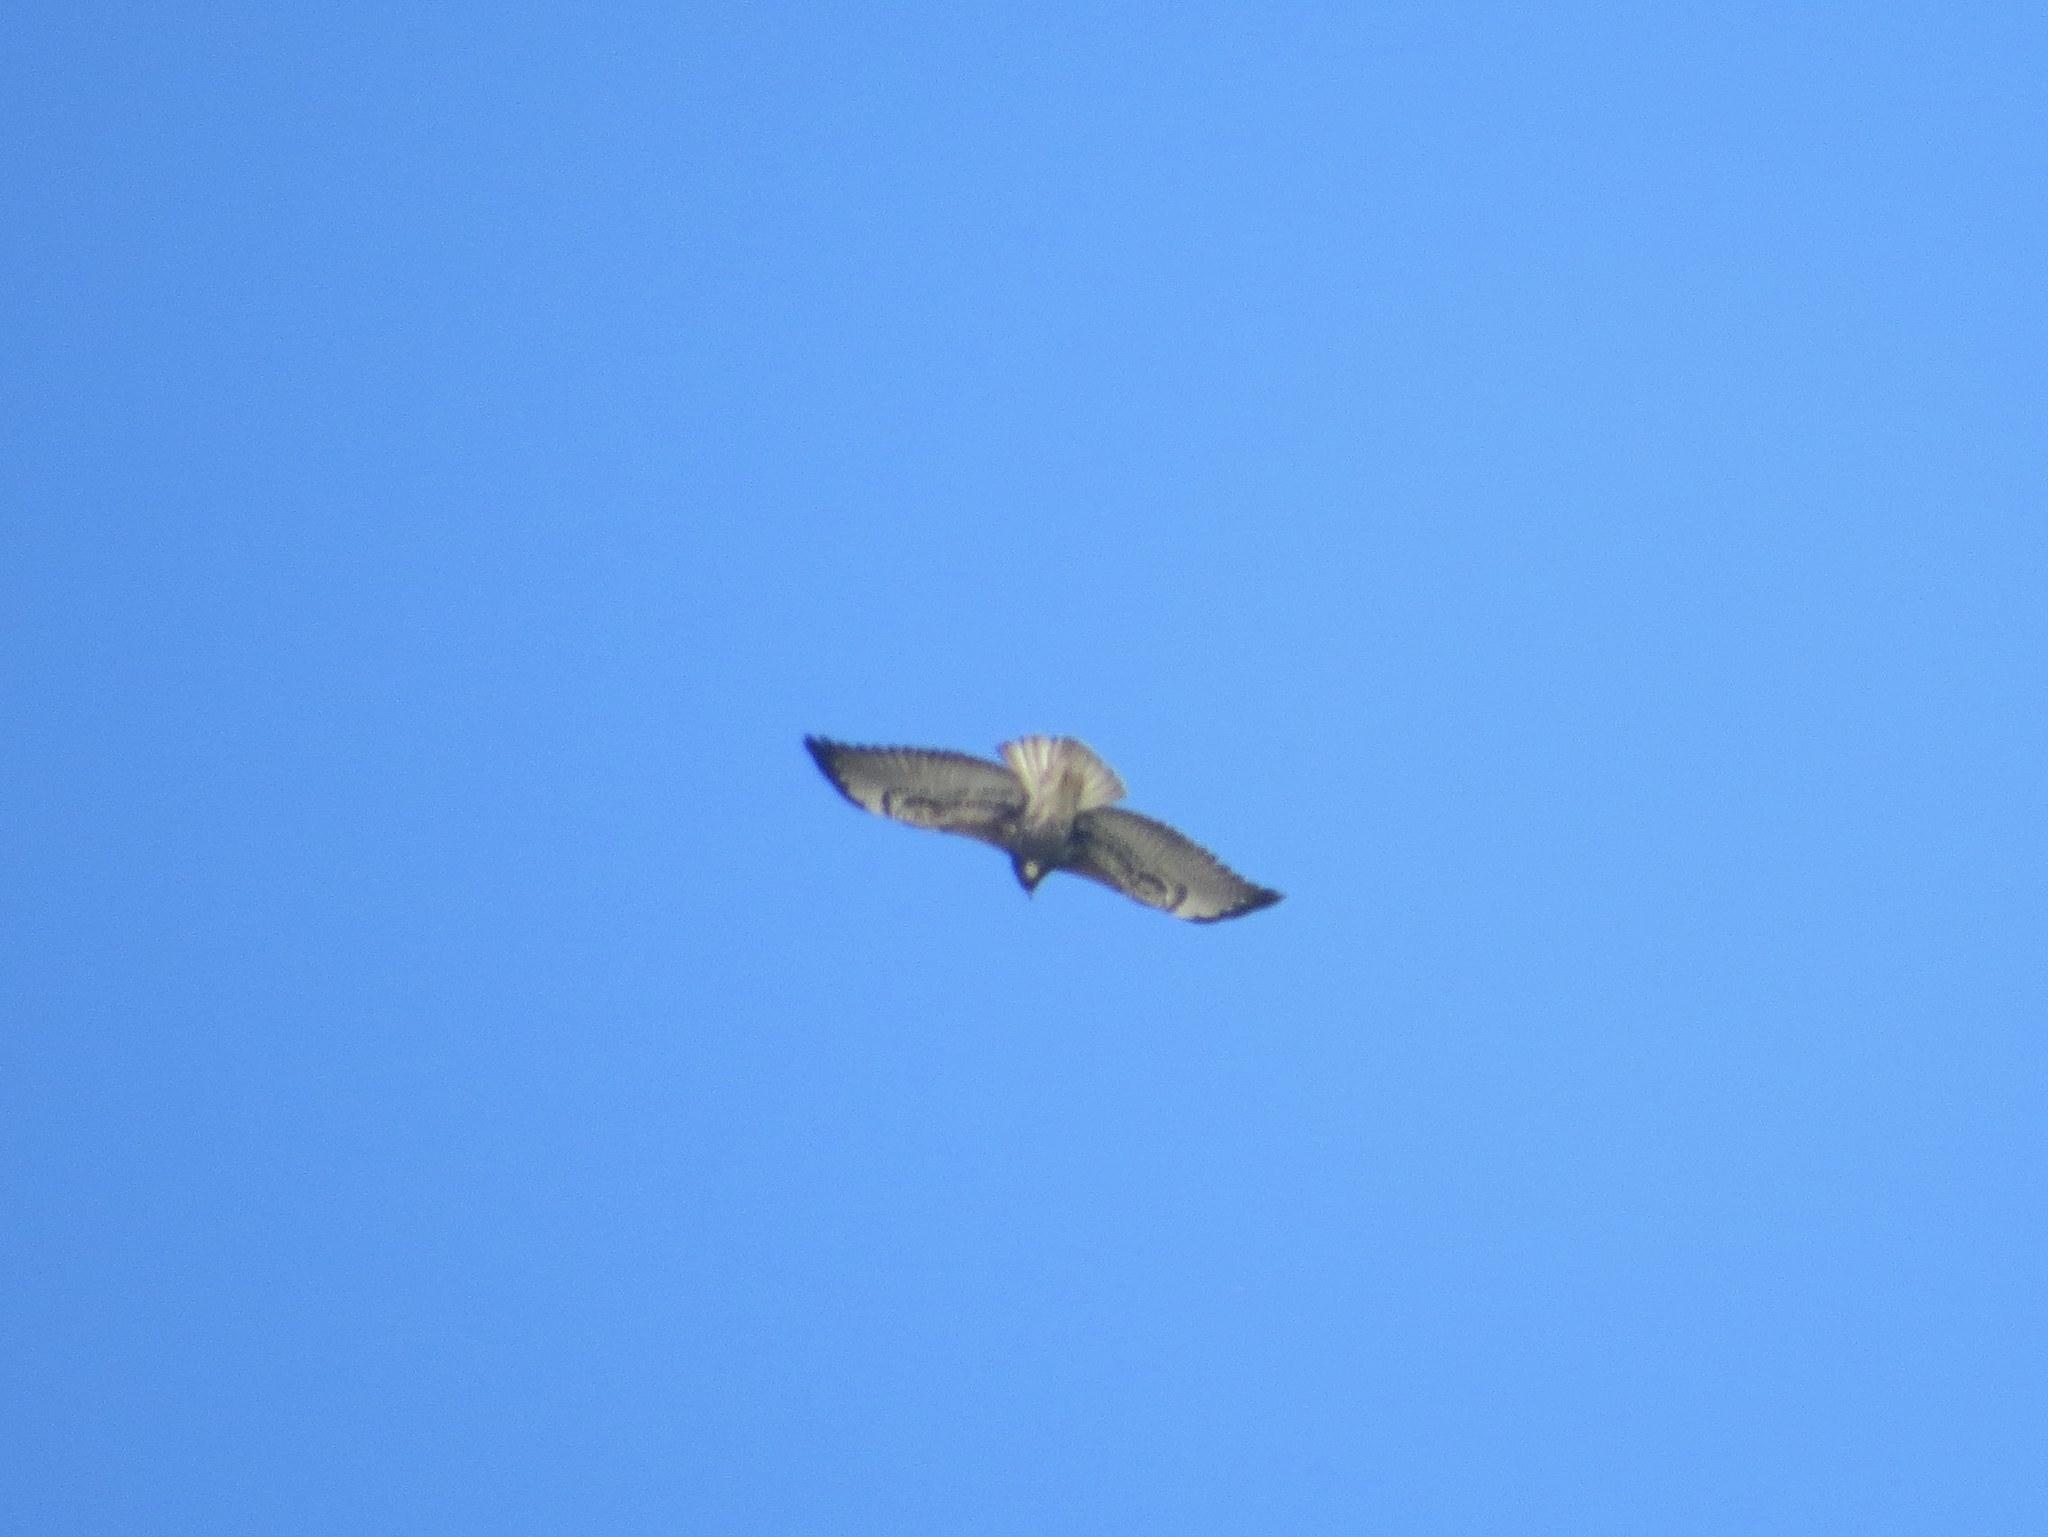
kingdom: Animalia
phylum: Chordata
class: Aves
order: Accipitriformes
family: Accipitridae
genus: Buteo
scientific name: Buteo albicaudatus
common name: White-tailed hawk
